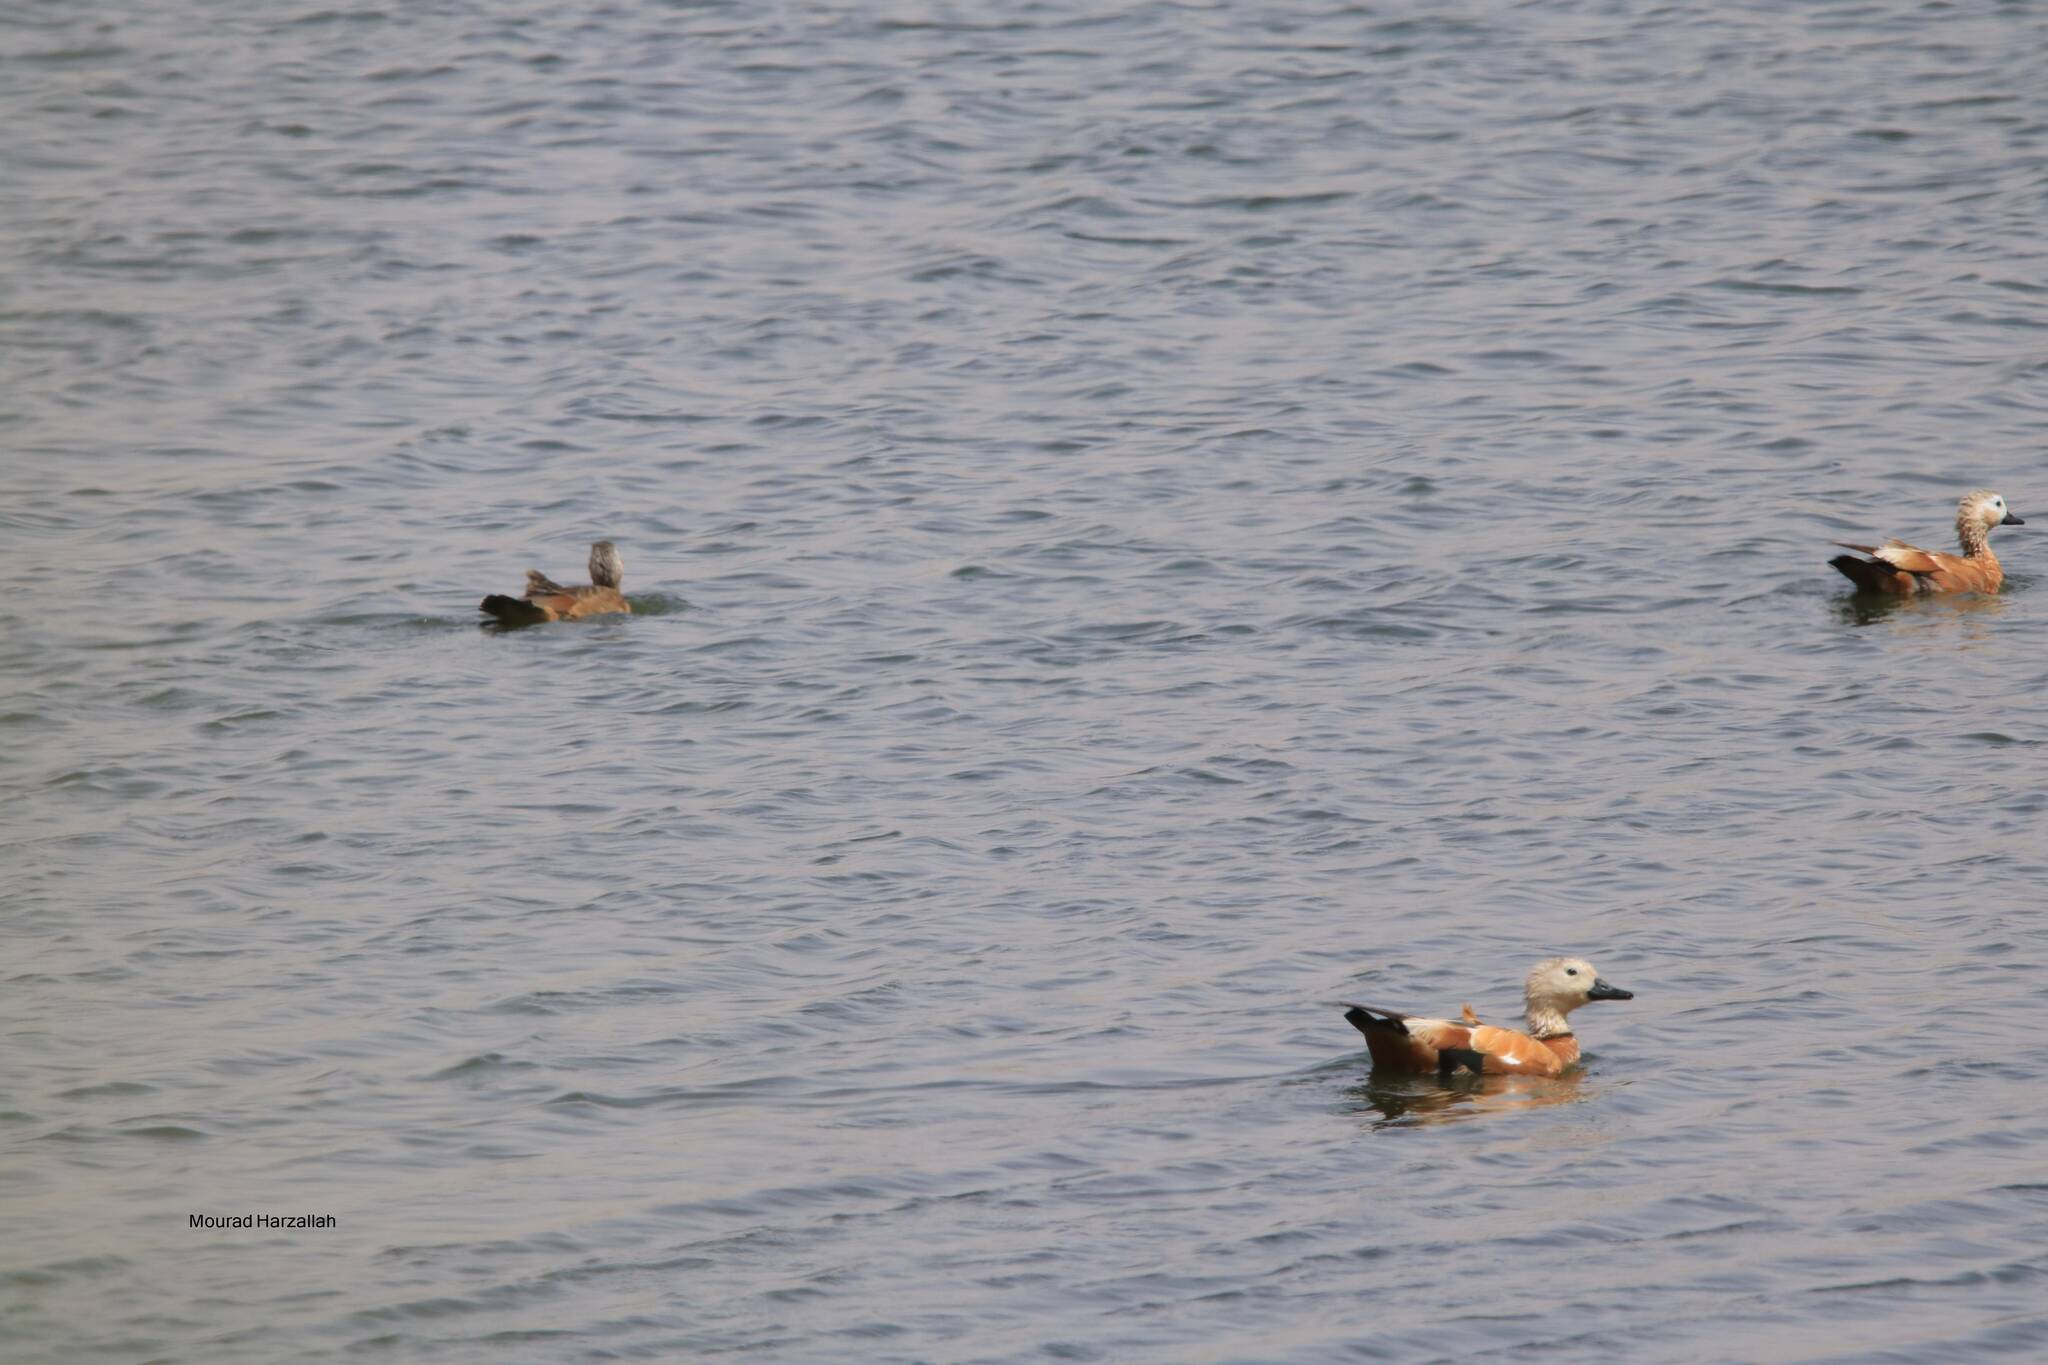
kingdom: Animalia
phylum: Chordata
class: Aves
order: Anseriformes
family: Anatidae
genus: Tadorna
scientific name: Tadorna ferruginea
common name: Ruddy shelduck
